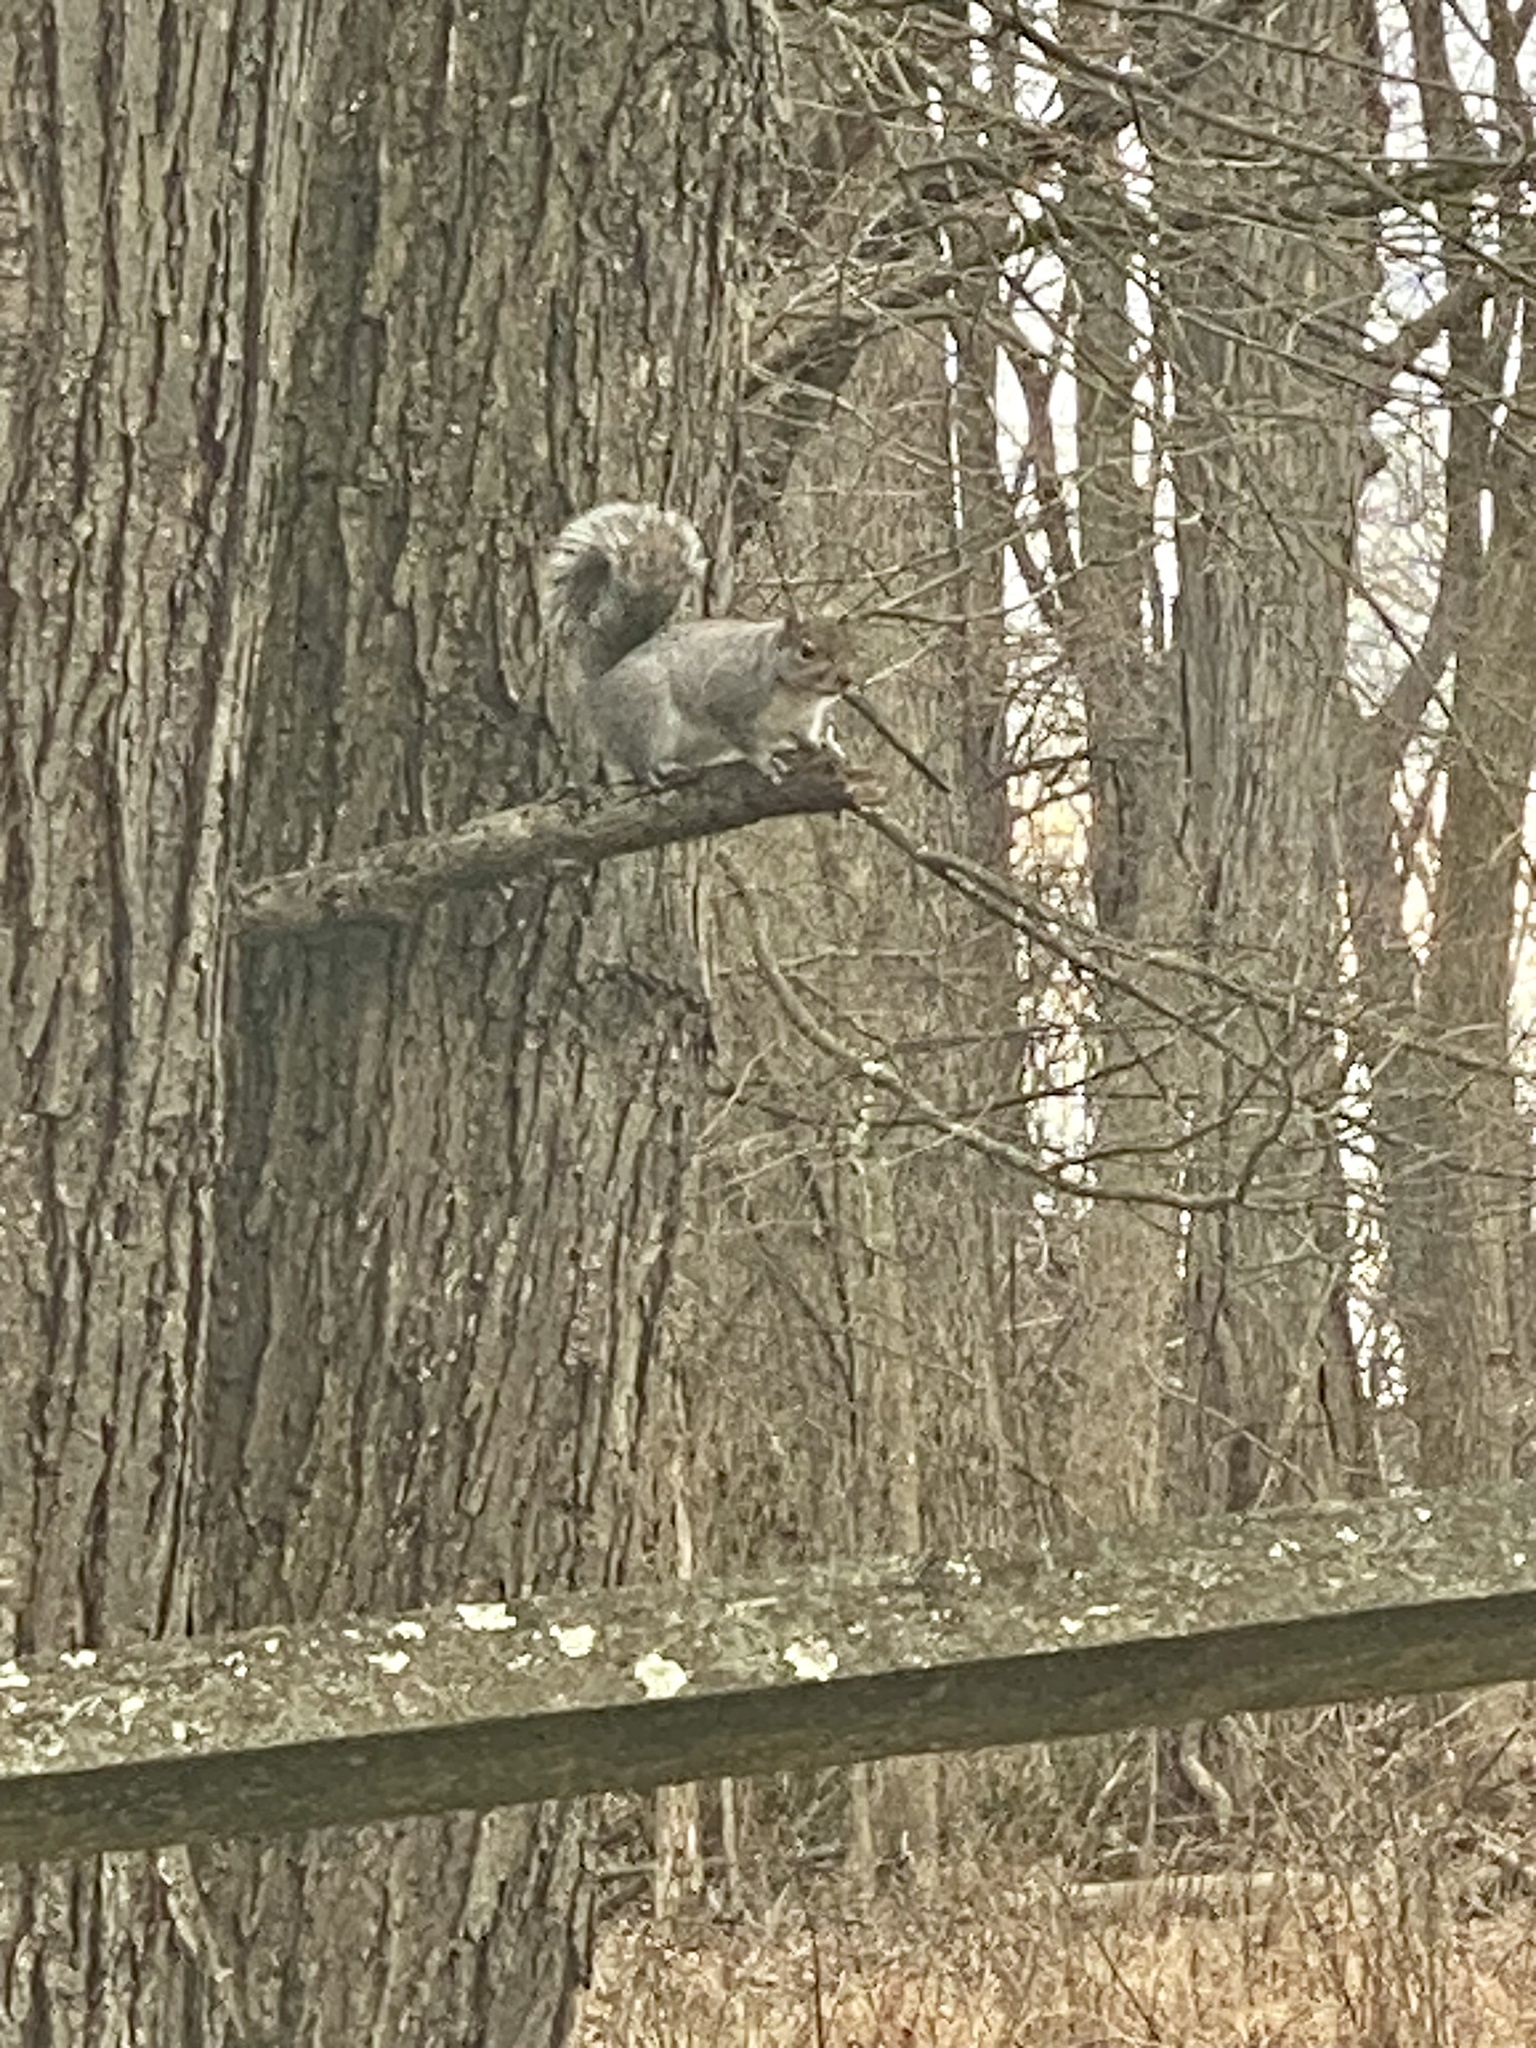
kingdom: Animalia
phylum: Chordata
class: Mammalia
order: Rodentia
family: Sciuridae
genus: Sciurus
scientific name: Sciurus carolinensis
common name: Eastern gray squirrel
